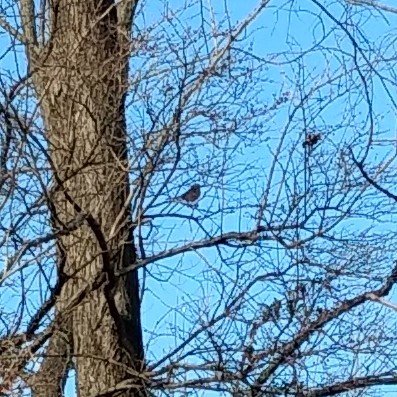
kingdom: Animalia
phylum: Chordata
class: Aves
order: Passeriformes
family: Passerellidae
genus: Zonotrichia
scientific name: Zonotrichia albicollis
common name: White-throated sparrow
